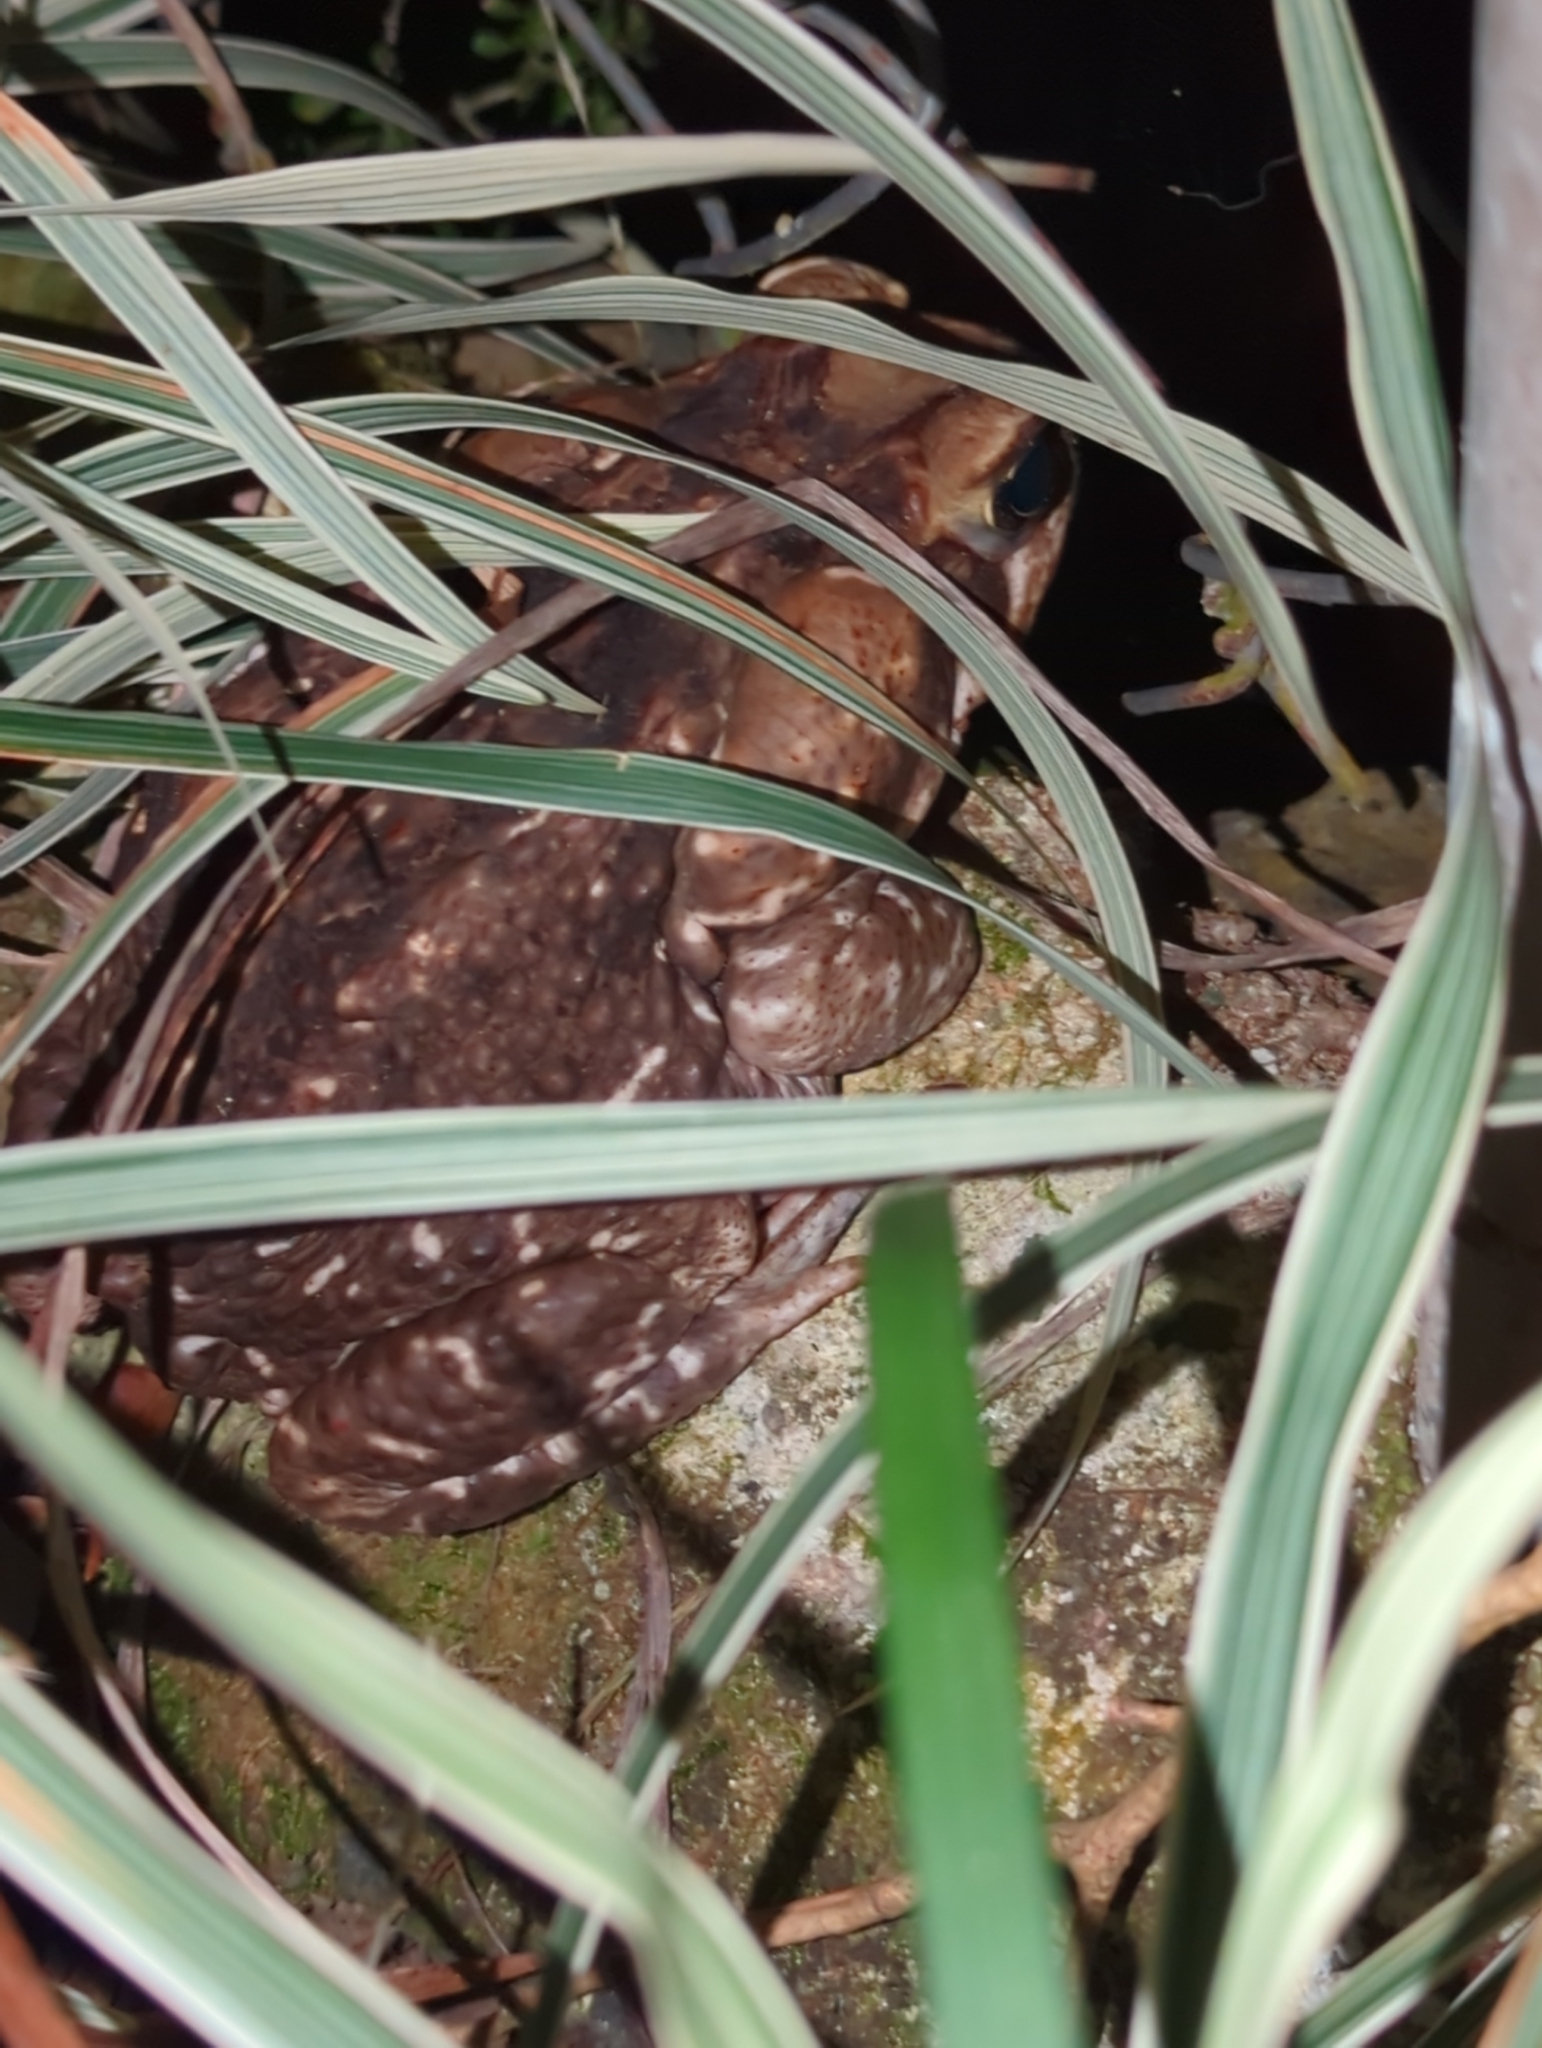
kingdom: Animalia
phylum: Chordata
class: Amphibia
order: Anura
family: Bufonidae
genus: Rhinella
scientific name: Rhinella horribilis
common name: Mesoamerican cane toad
